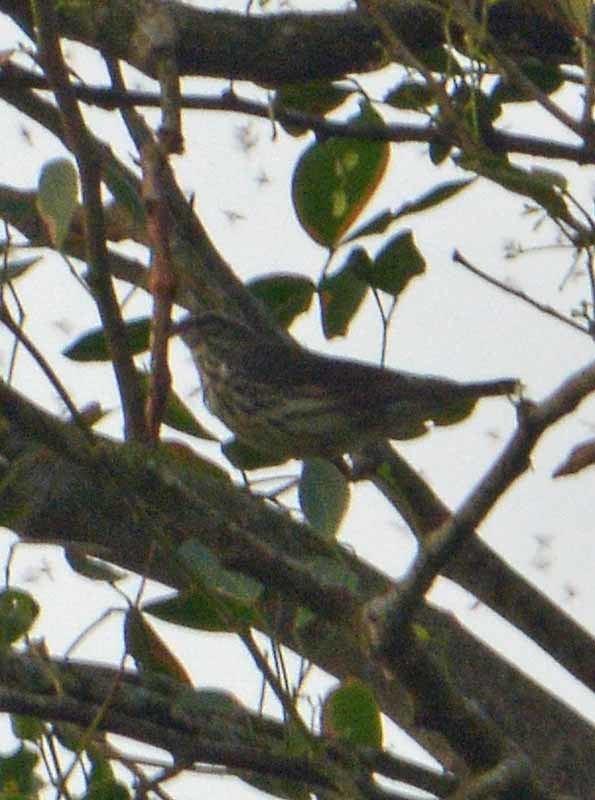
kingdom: Animalia
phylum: Chordata
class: Aves
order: Passeriformes
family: Parulidae
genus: Parkesia
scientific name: Parkesia noveboracensis
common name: Northern waterthrush
